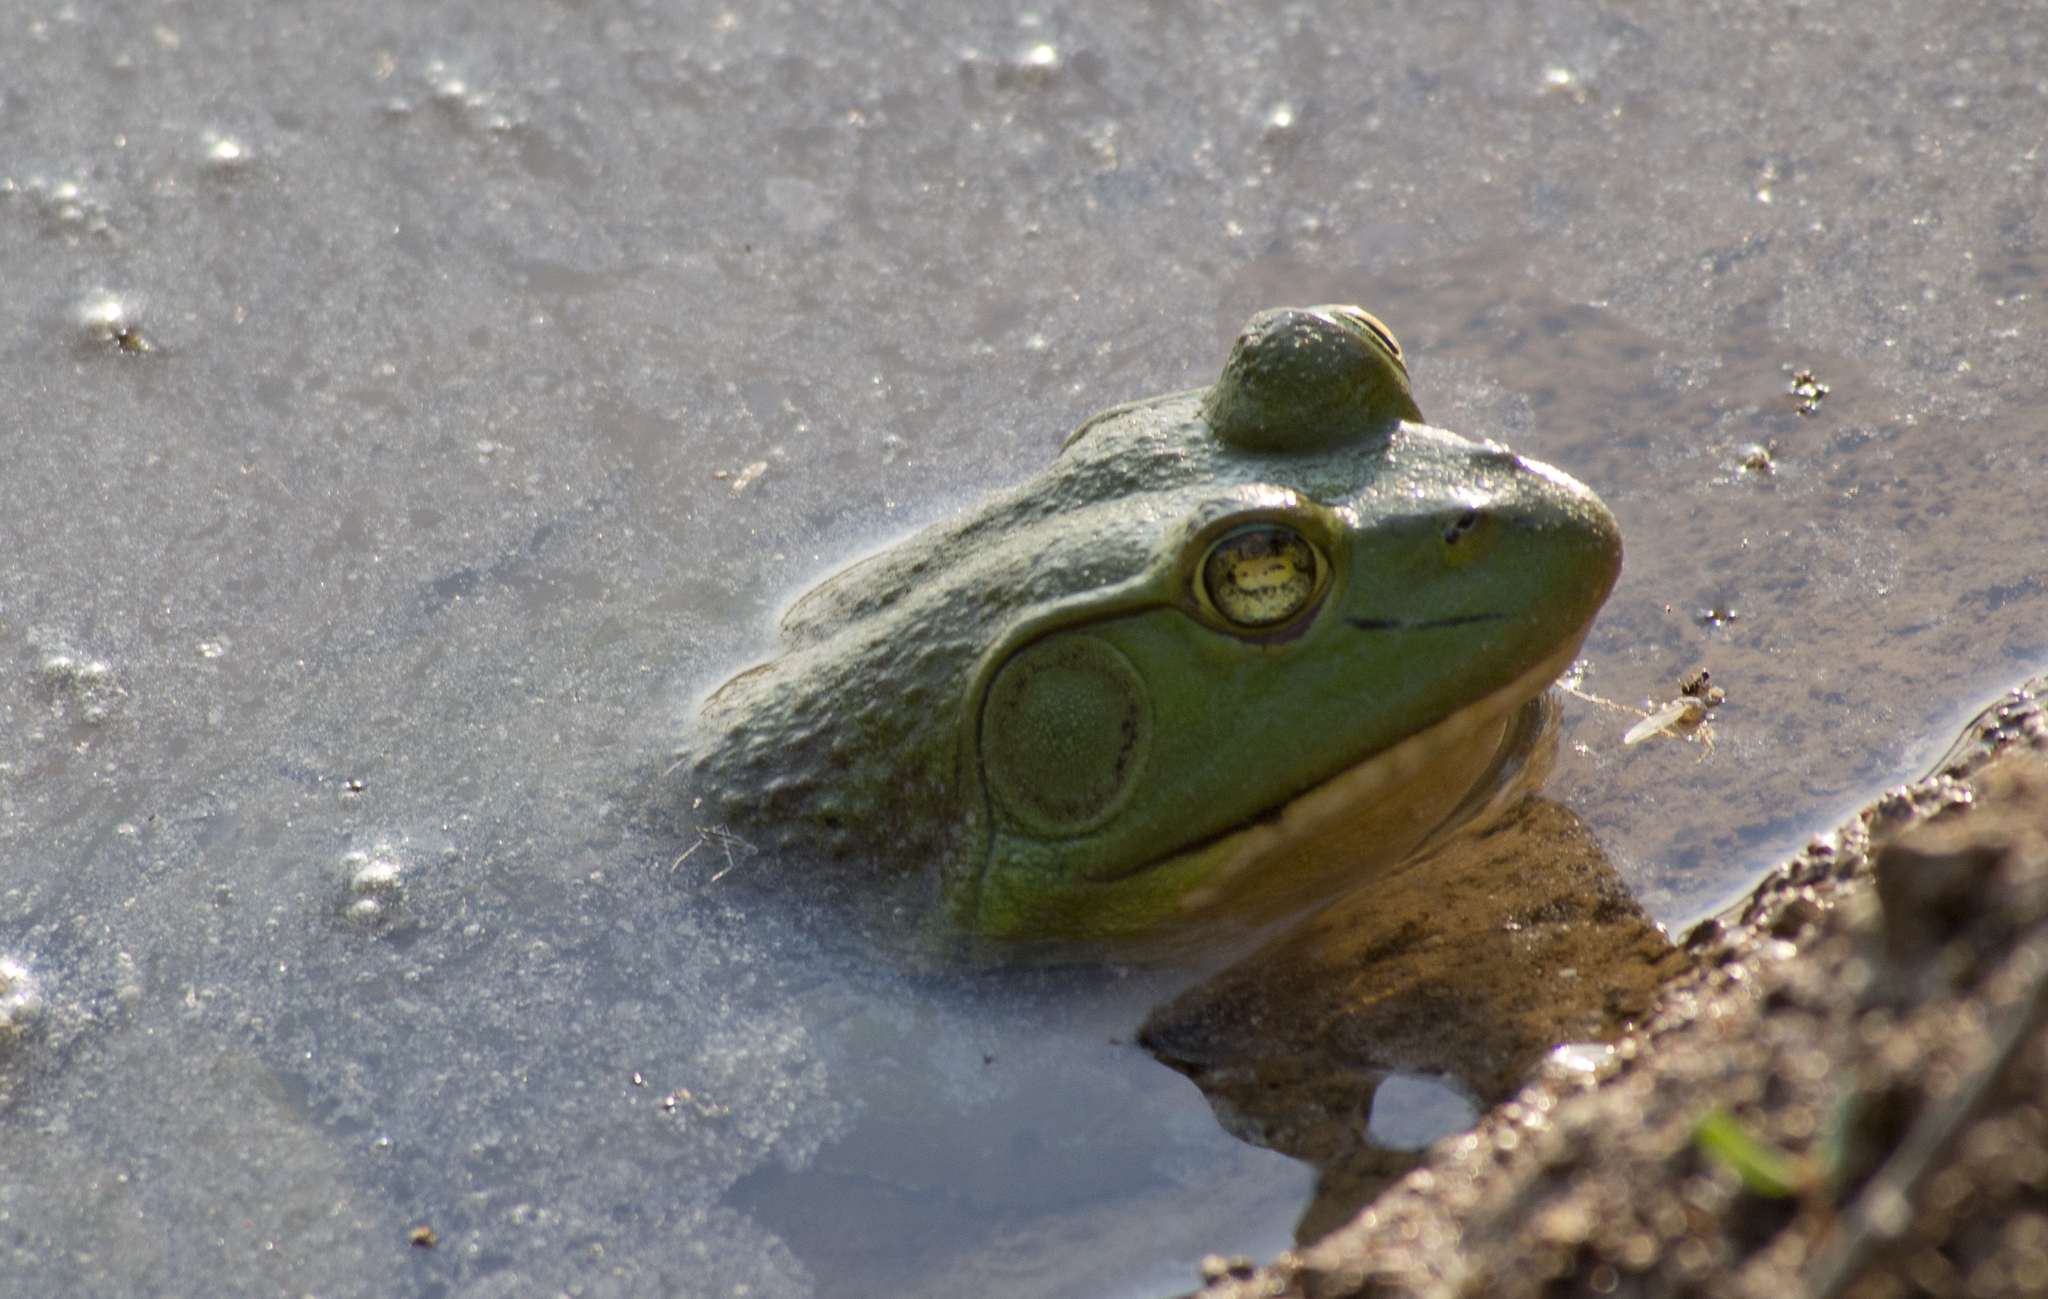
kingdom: Animalia
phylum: Chordata
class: Amphibia
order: Anura
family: Ranidae
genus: Lithobates
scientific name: Lithobates catesbeianus
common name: American bullfrog
